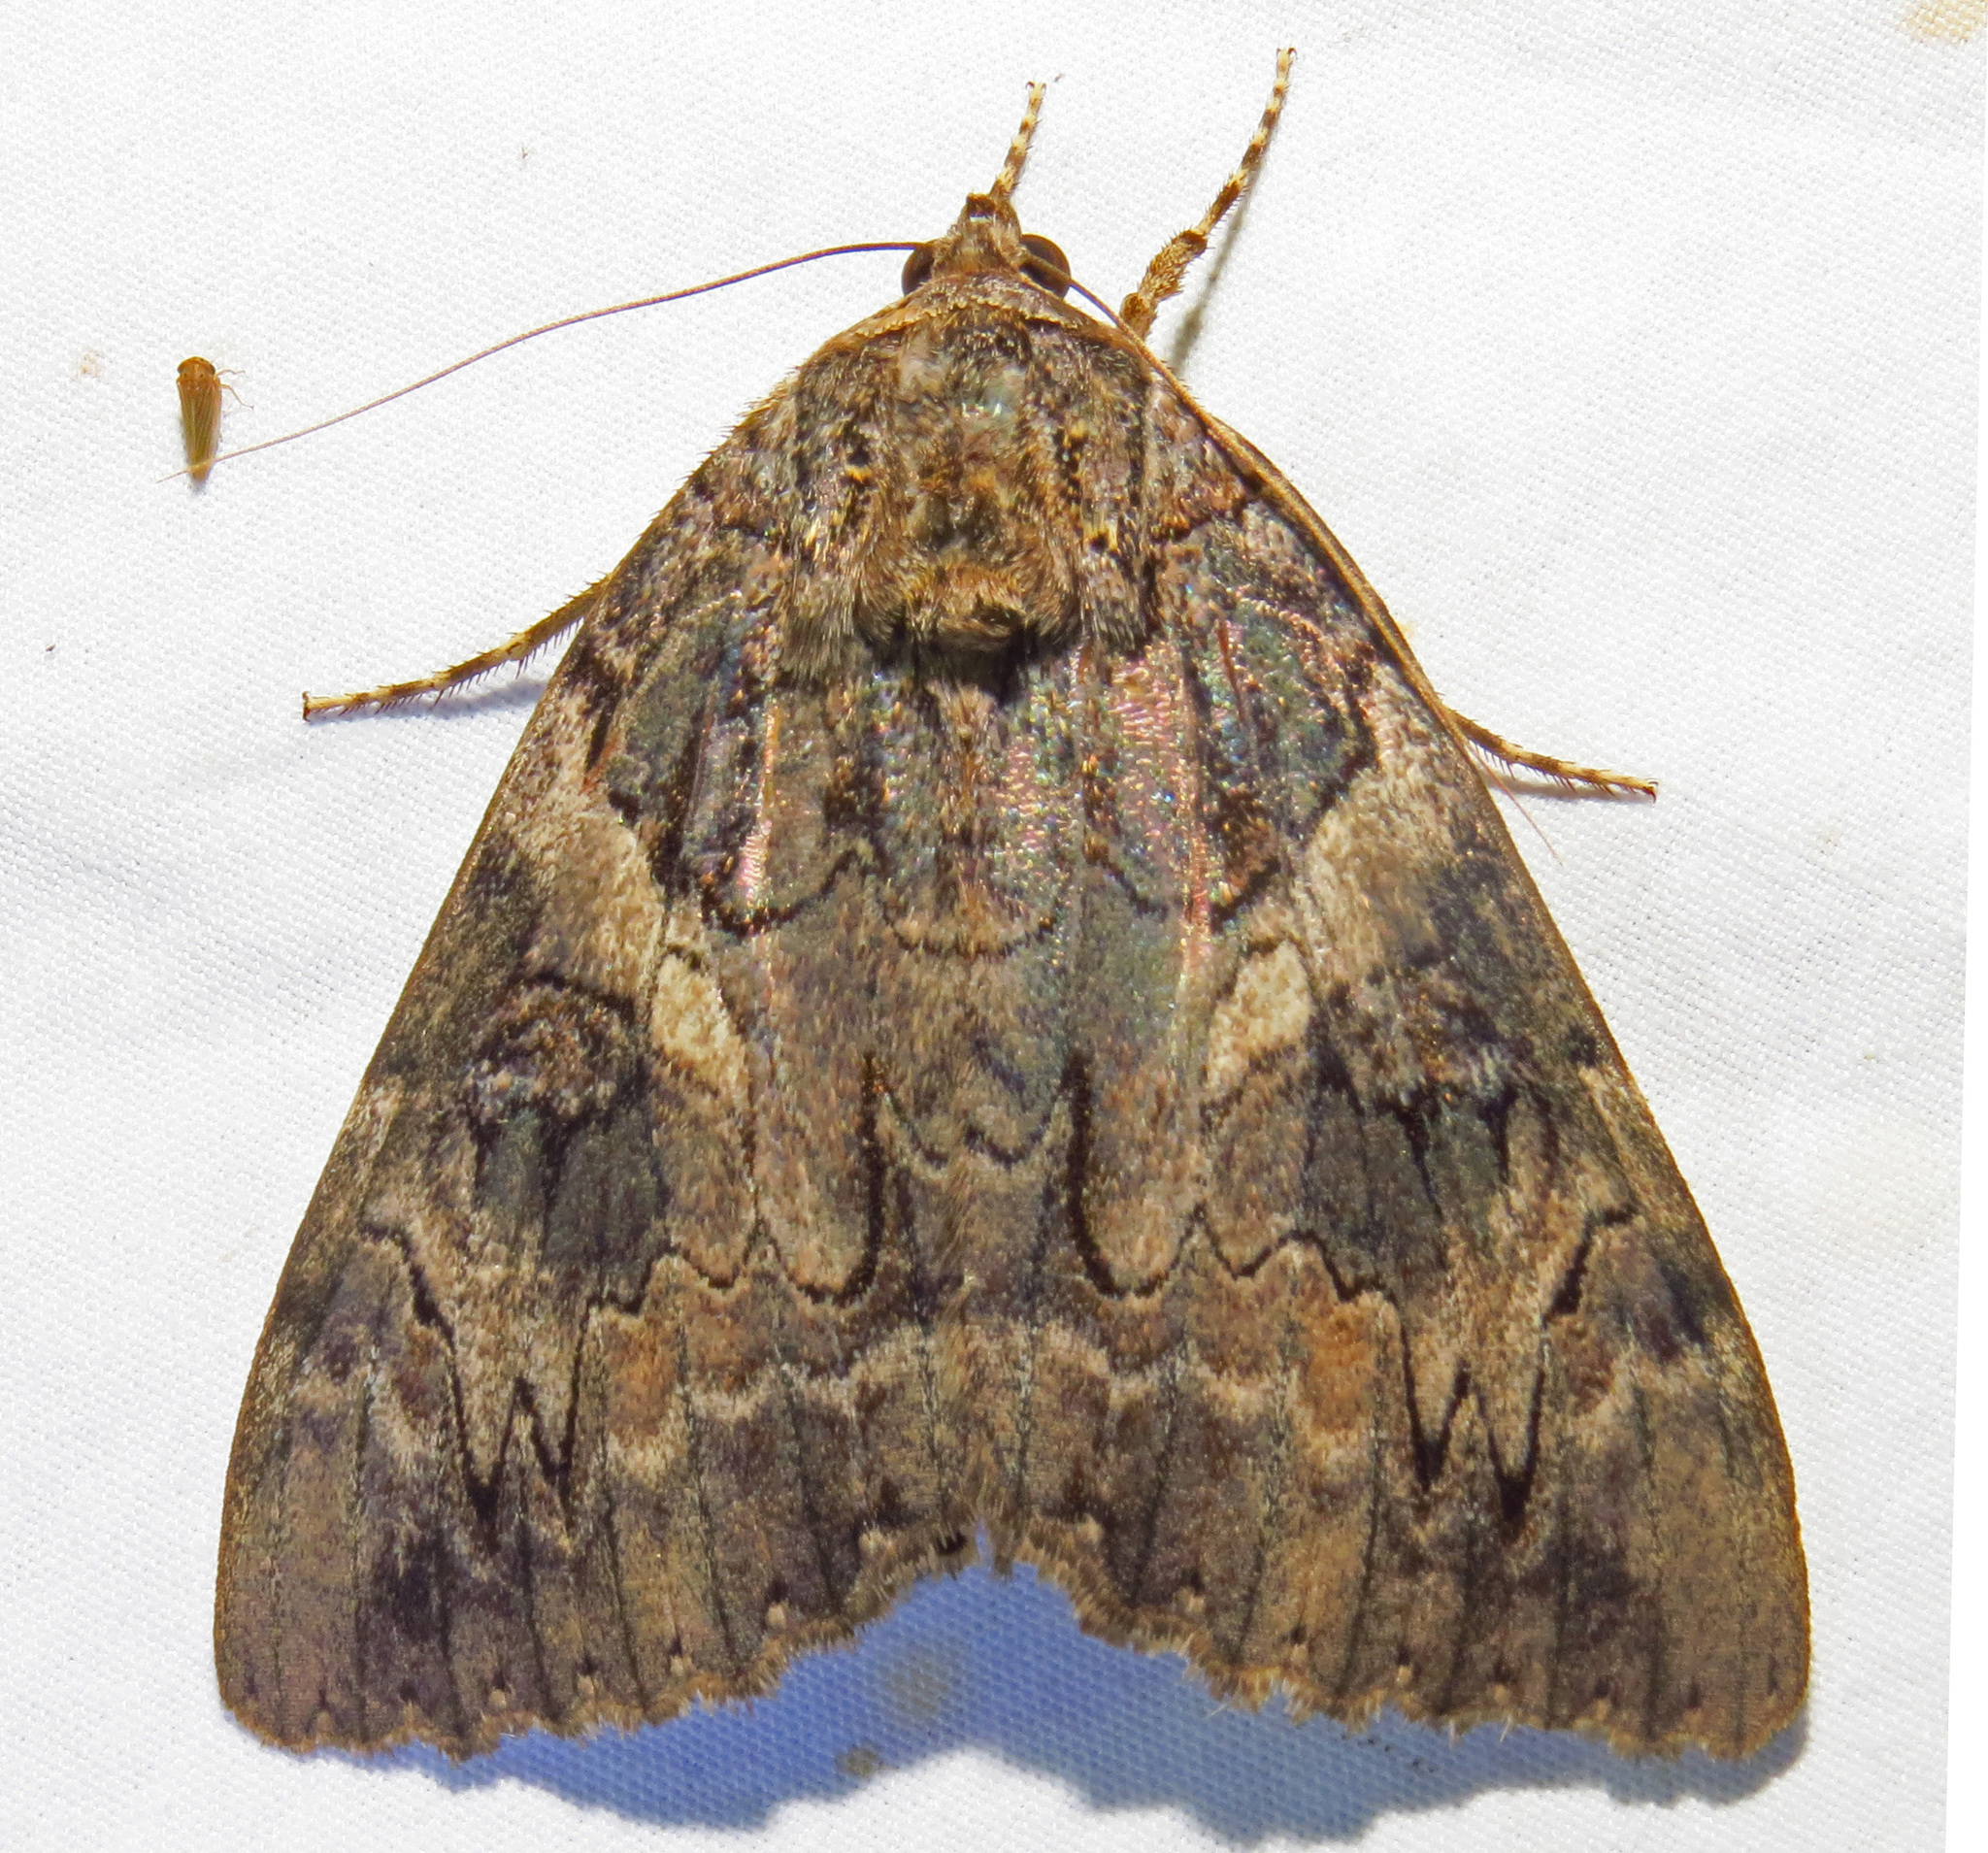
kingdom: Animalia
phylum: Arthropoda
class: Insecta
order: Lepidoptera
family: Erebidae
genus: Catocala
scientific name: Catocala piatrix
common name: The penitent underwing
